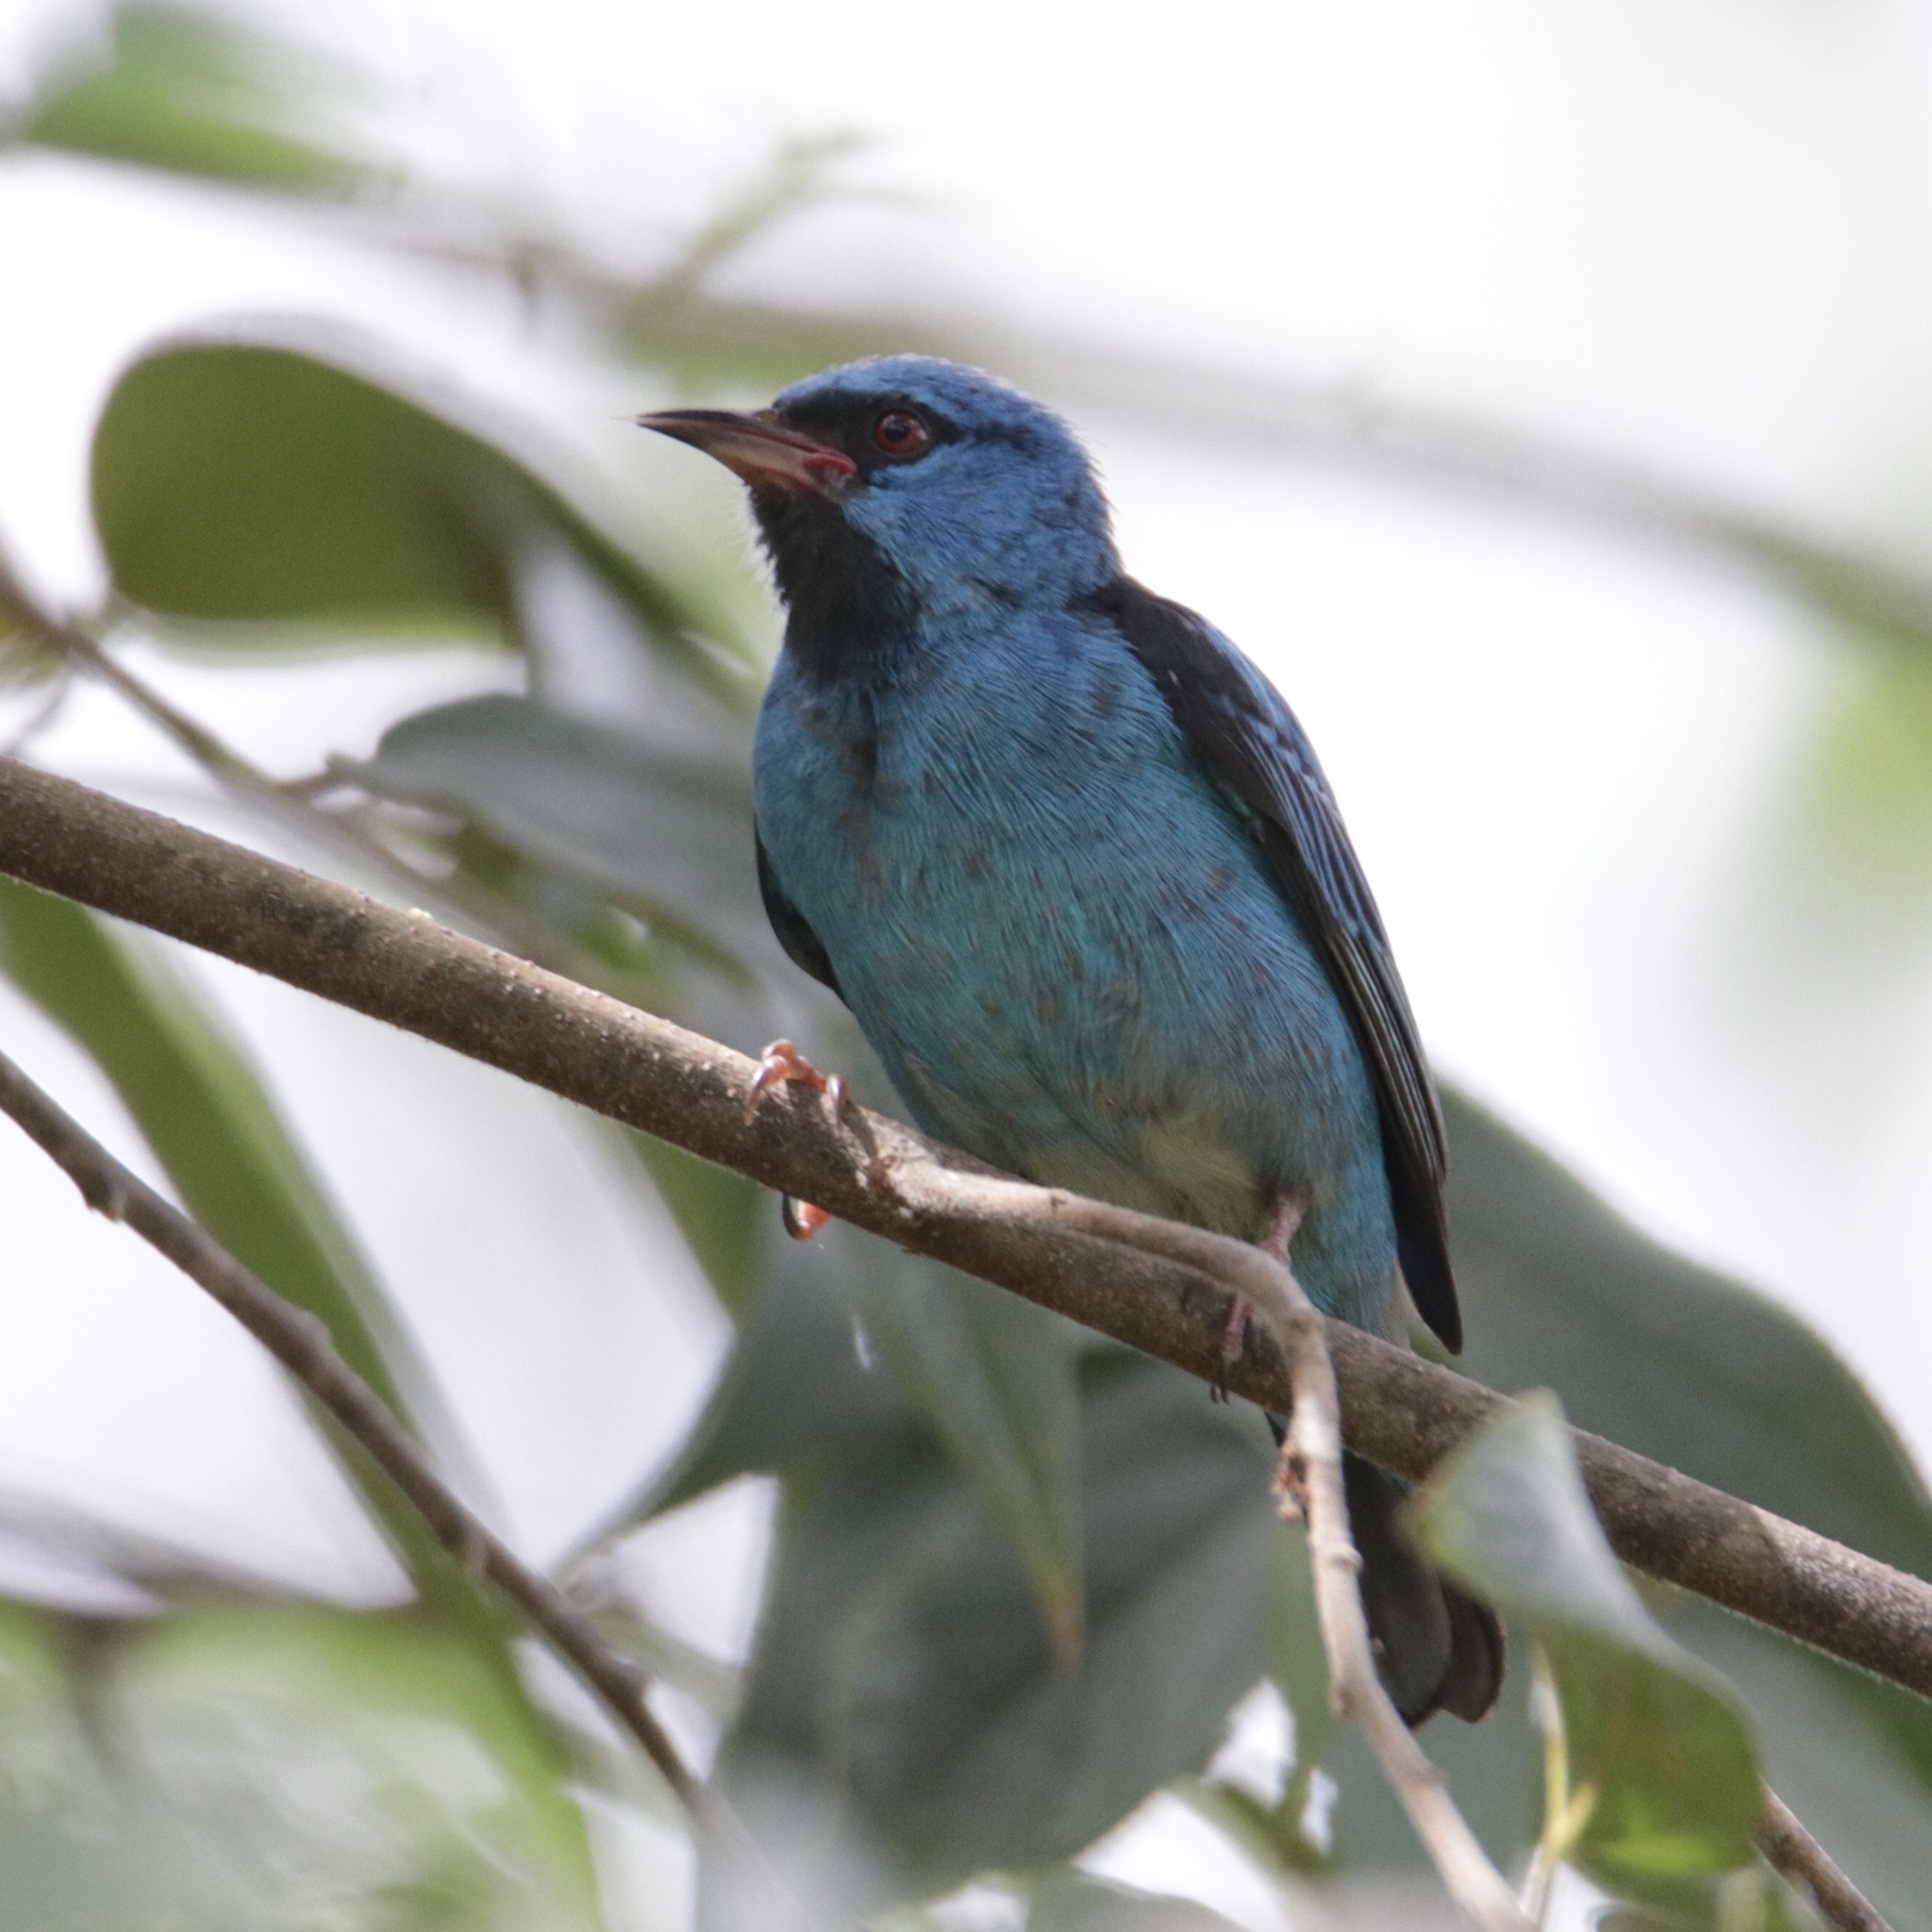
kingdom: Animalia
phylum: Chordata
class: Aves
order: Passeriformes
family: Thraupidae
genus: Dacnis
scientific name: Dacnis cayana
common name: Blue dacnis
